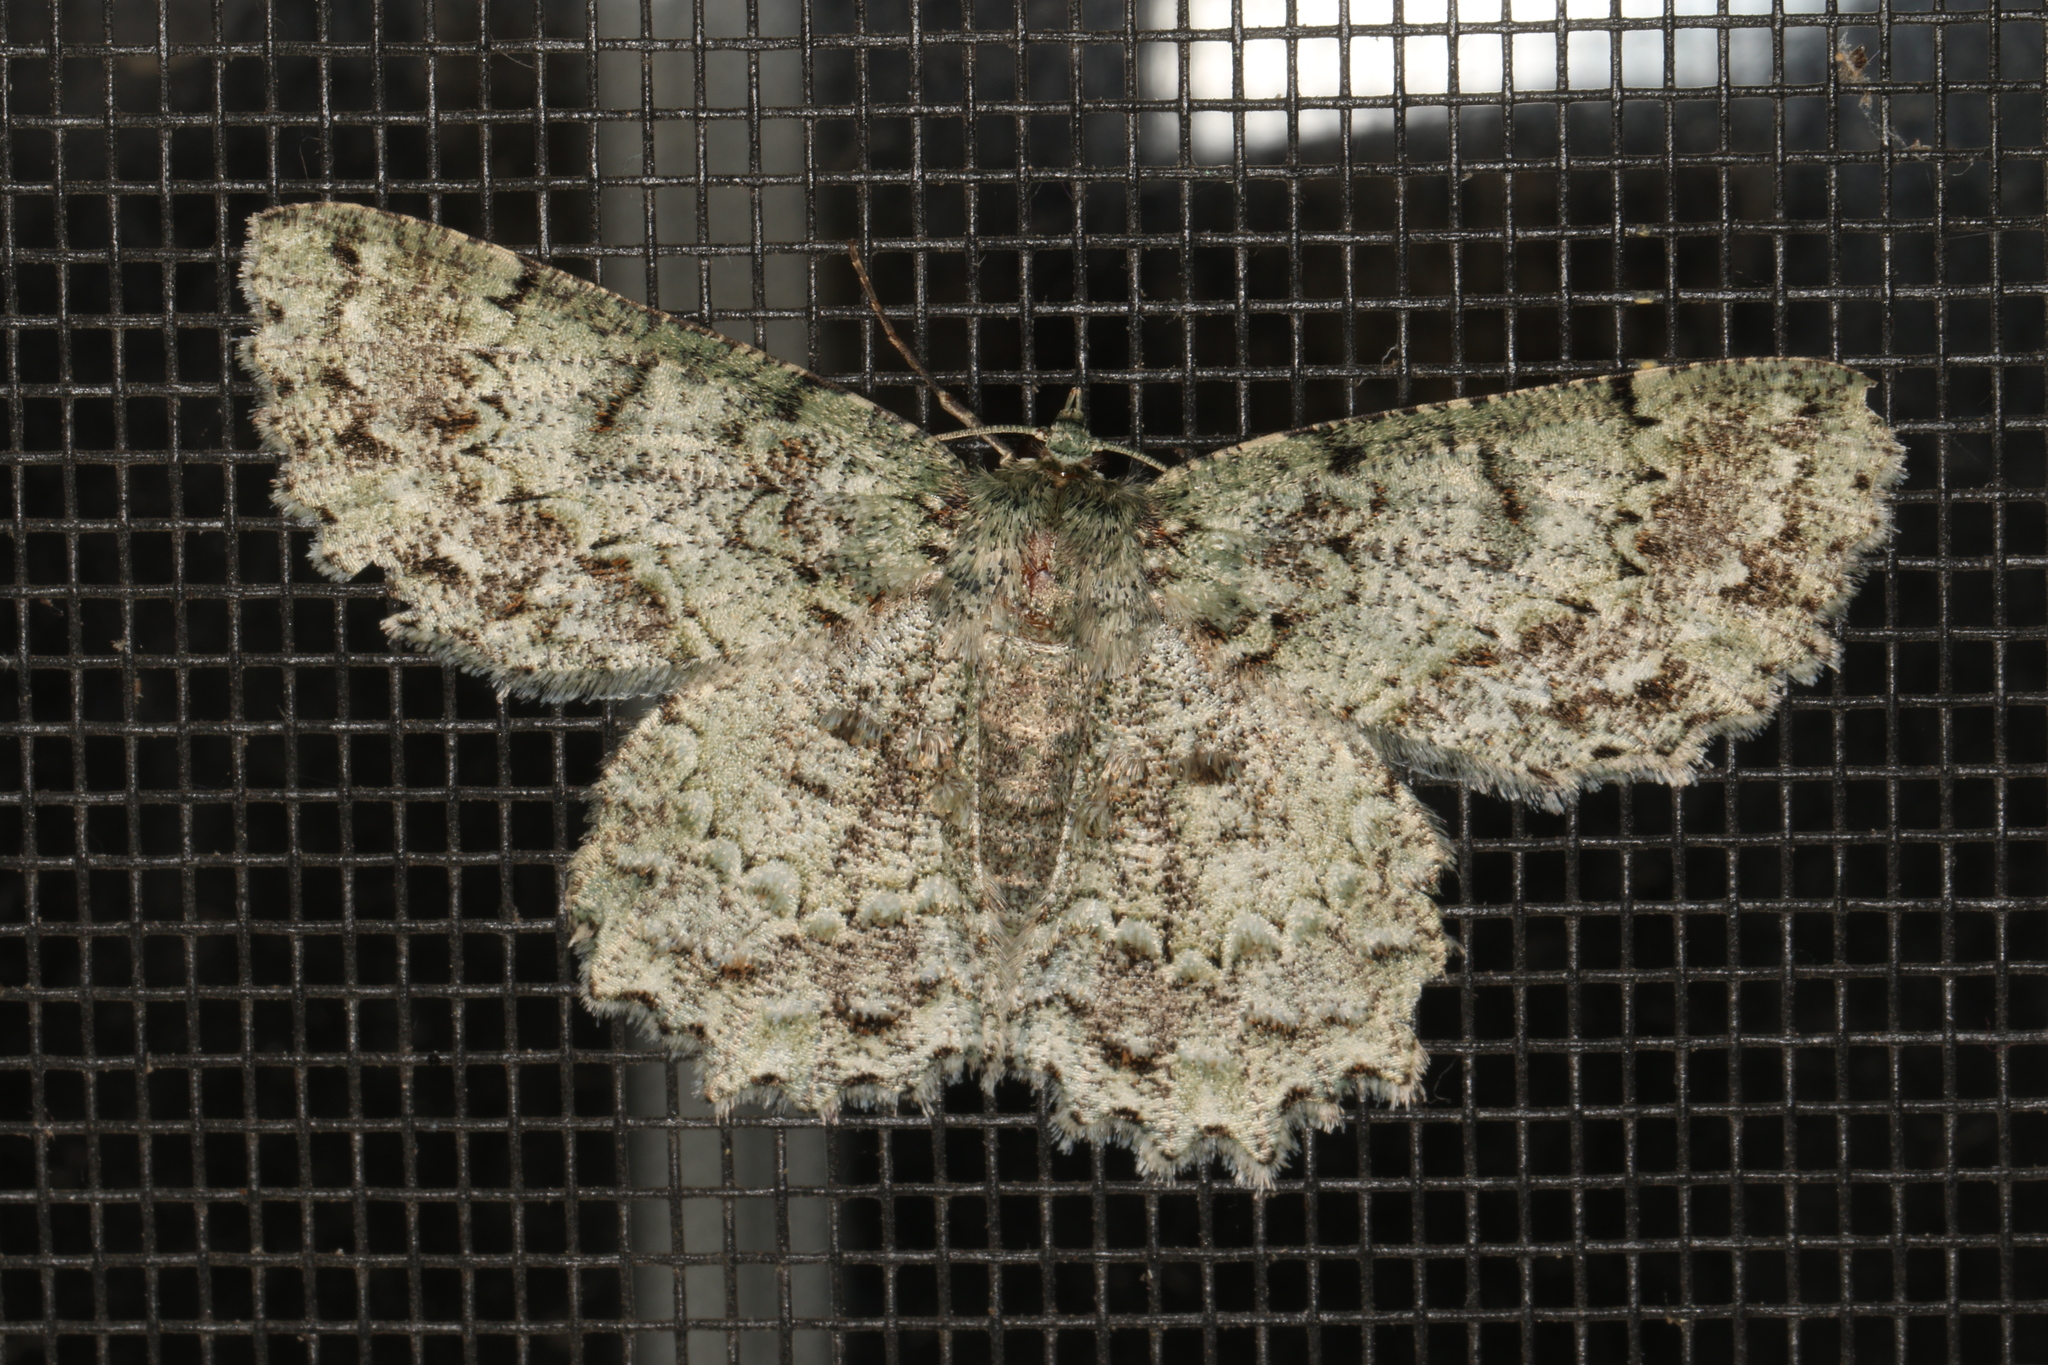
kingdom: Animalia
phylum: Arthropoda
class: Insecta
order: Lepidoptera
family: Geometridae
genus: Hypodoxa
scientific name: Hypodoxa muscosaria
